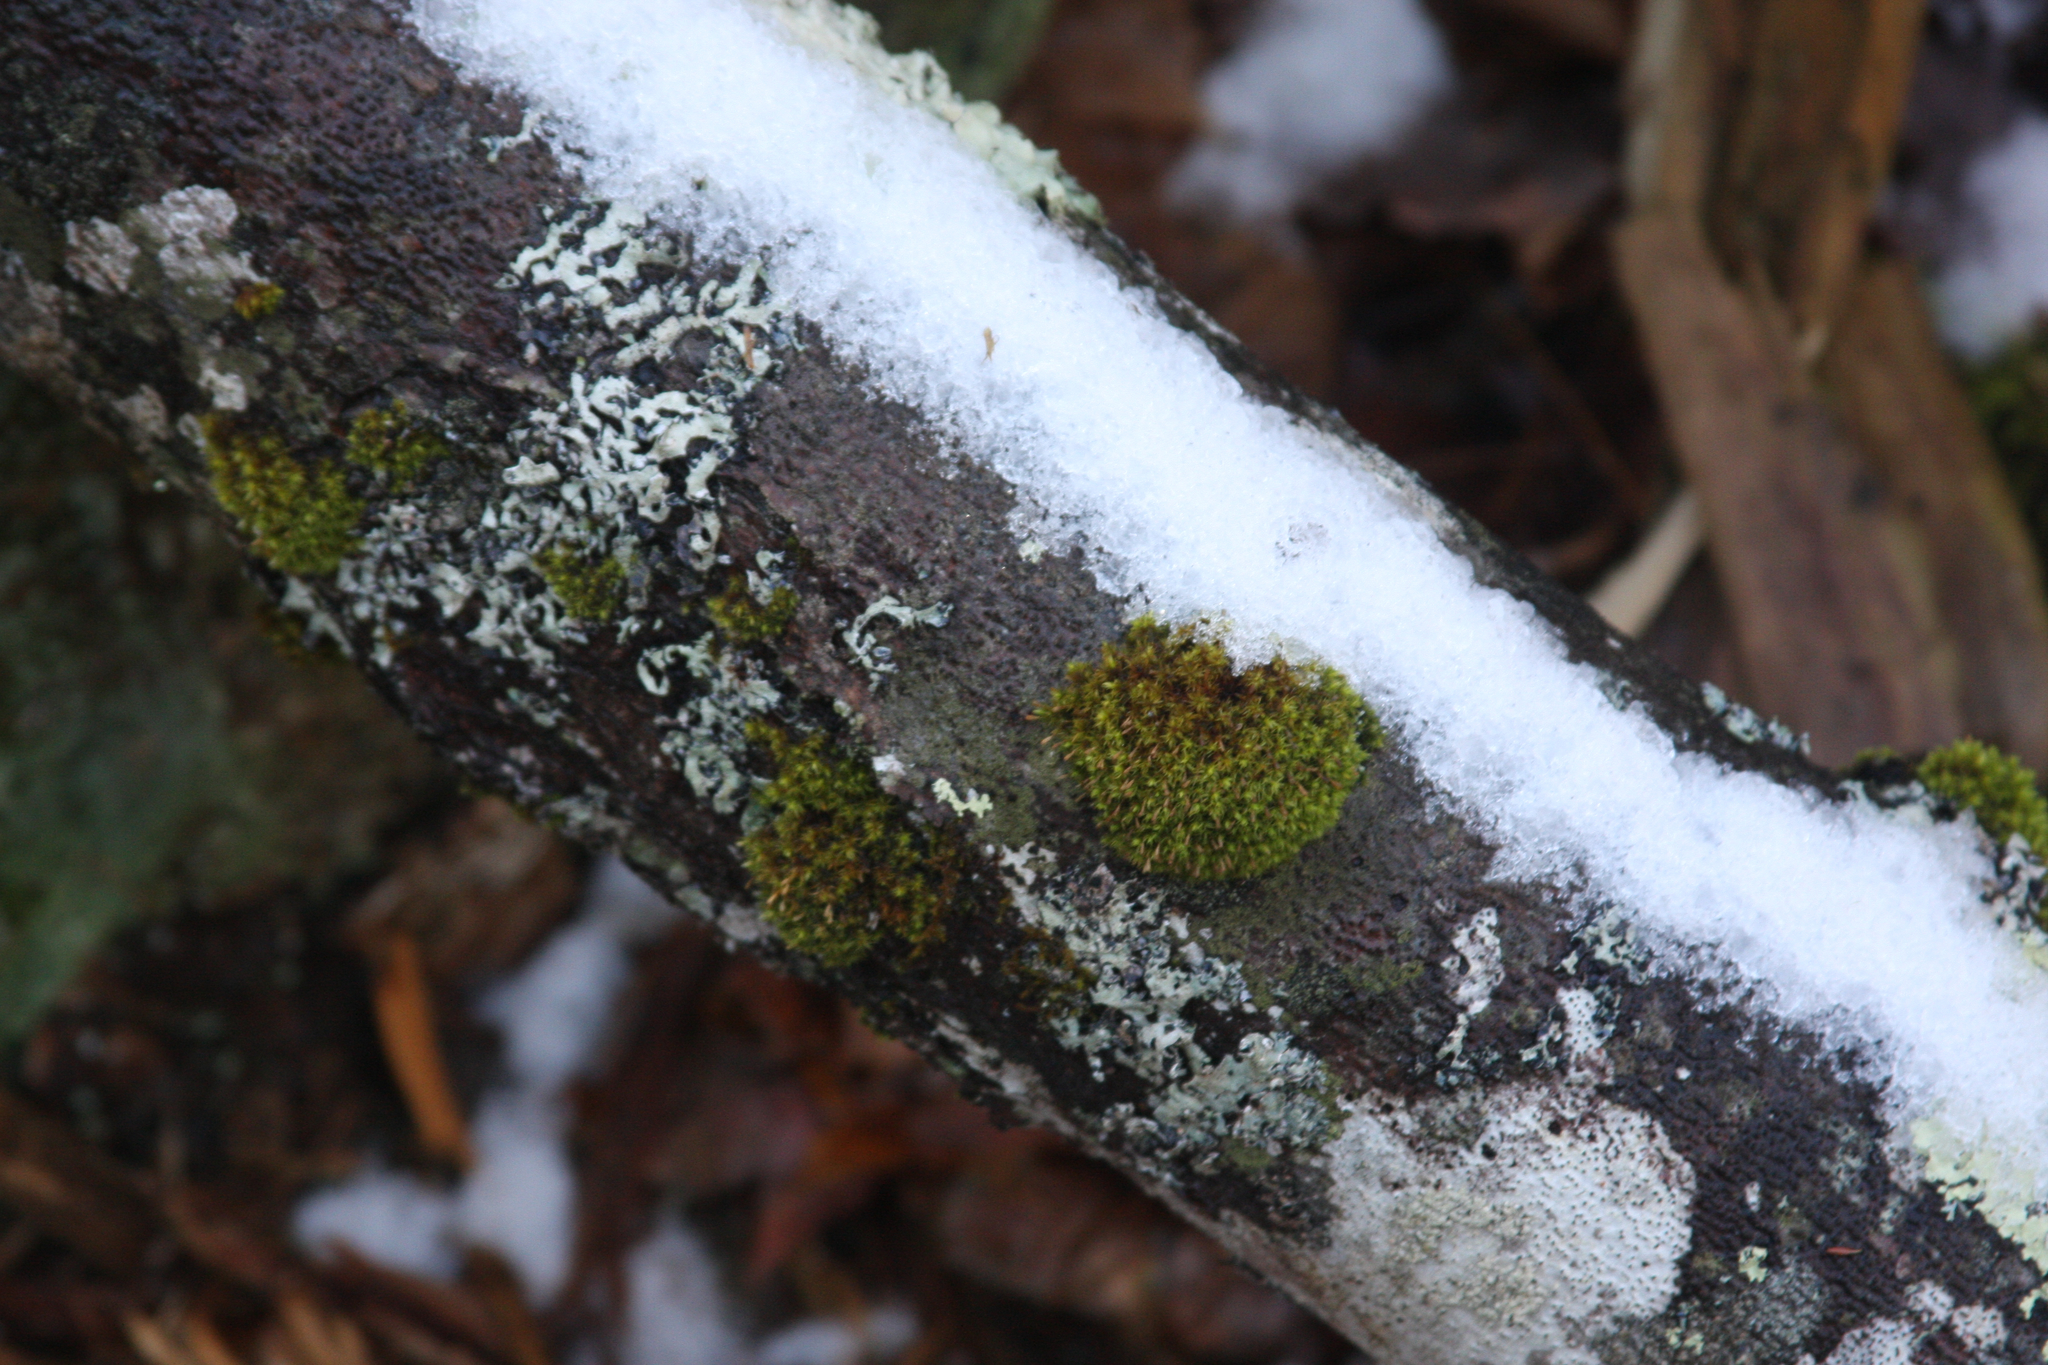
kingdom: Plantae
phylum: Bryophyta
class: Bryopsida
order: Orthotrichales
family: Orthotrichaceae
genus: Ulota
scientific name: Ulota crispa
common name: Crisped pincushion moss
